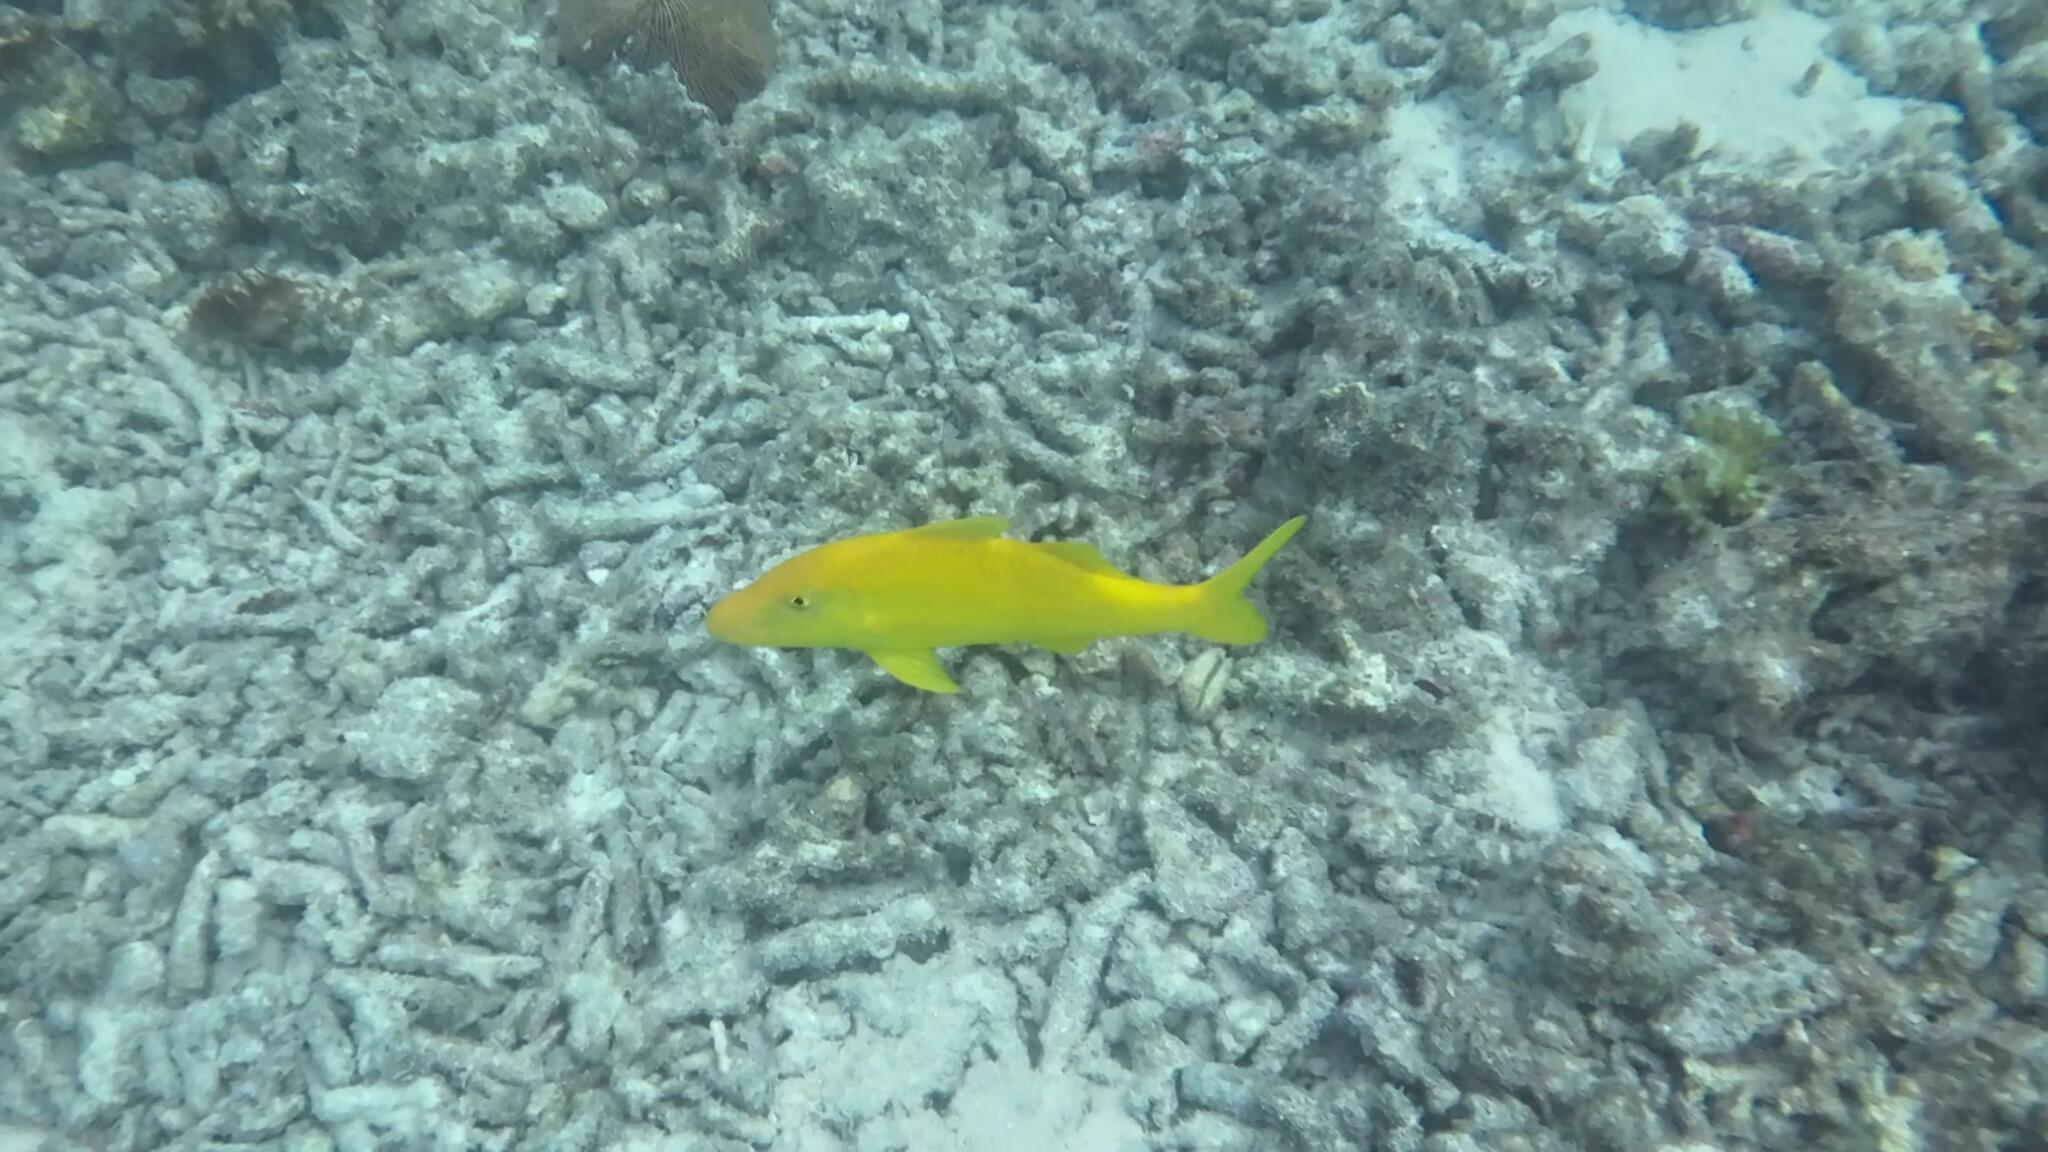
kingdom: Animalia
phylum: Chordata
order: Perciformes
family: Mullidae
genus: Parupeneus
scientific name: Parupeneus cyclostomus
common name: Goldsaddle goatfish
